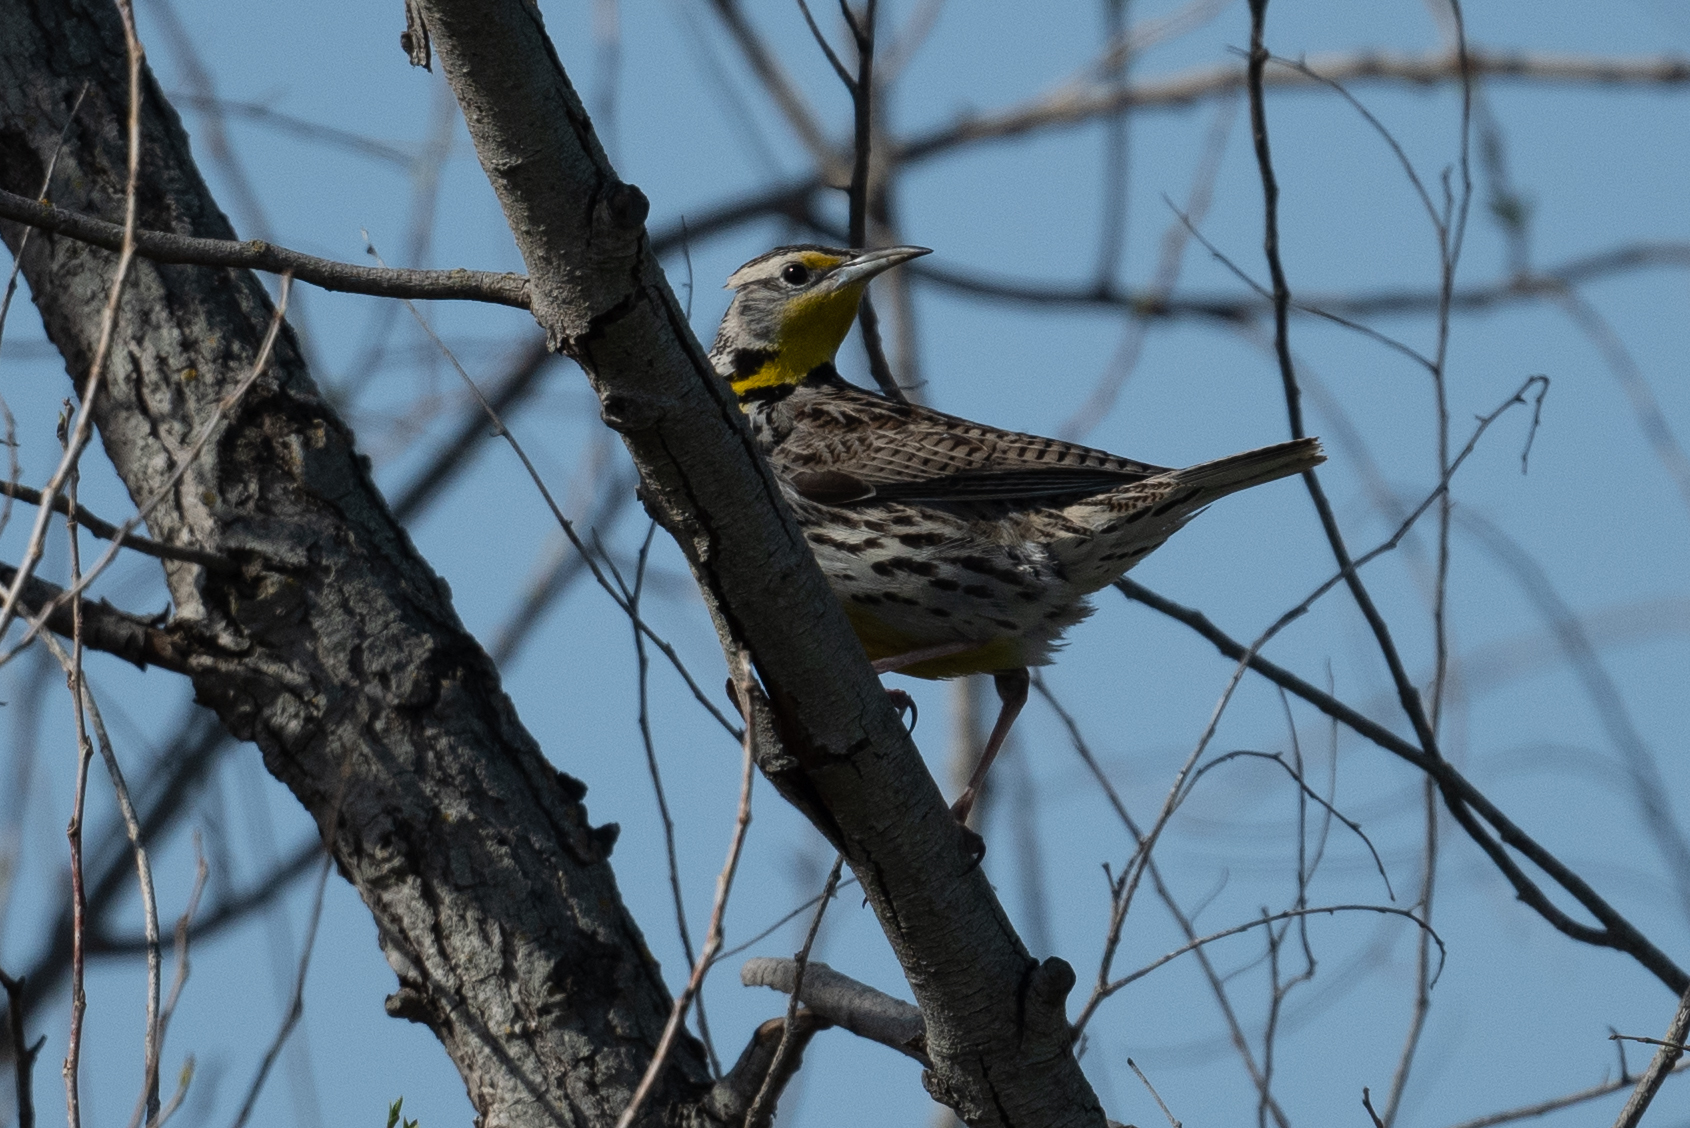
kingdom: Animalia
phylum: Chordata
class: Aves
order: Passeriformes
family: Icteridae
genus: Sturnella
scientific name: Sturnella neglecta
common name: Western meadowlark
